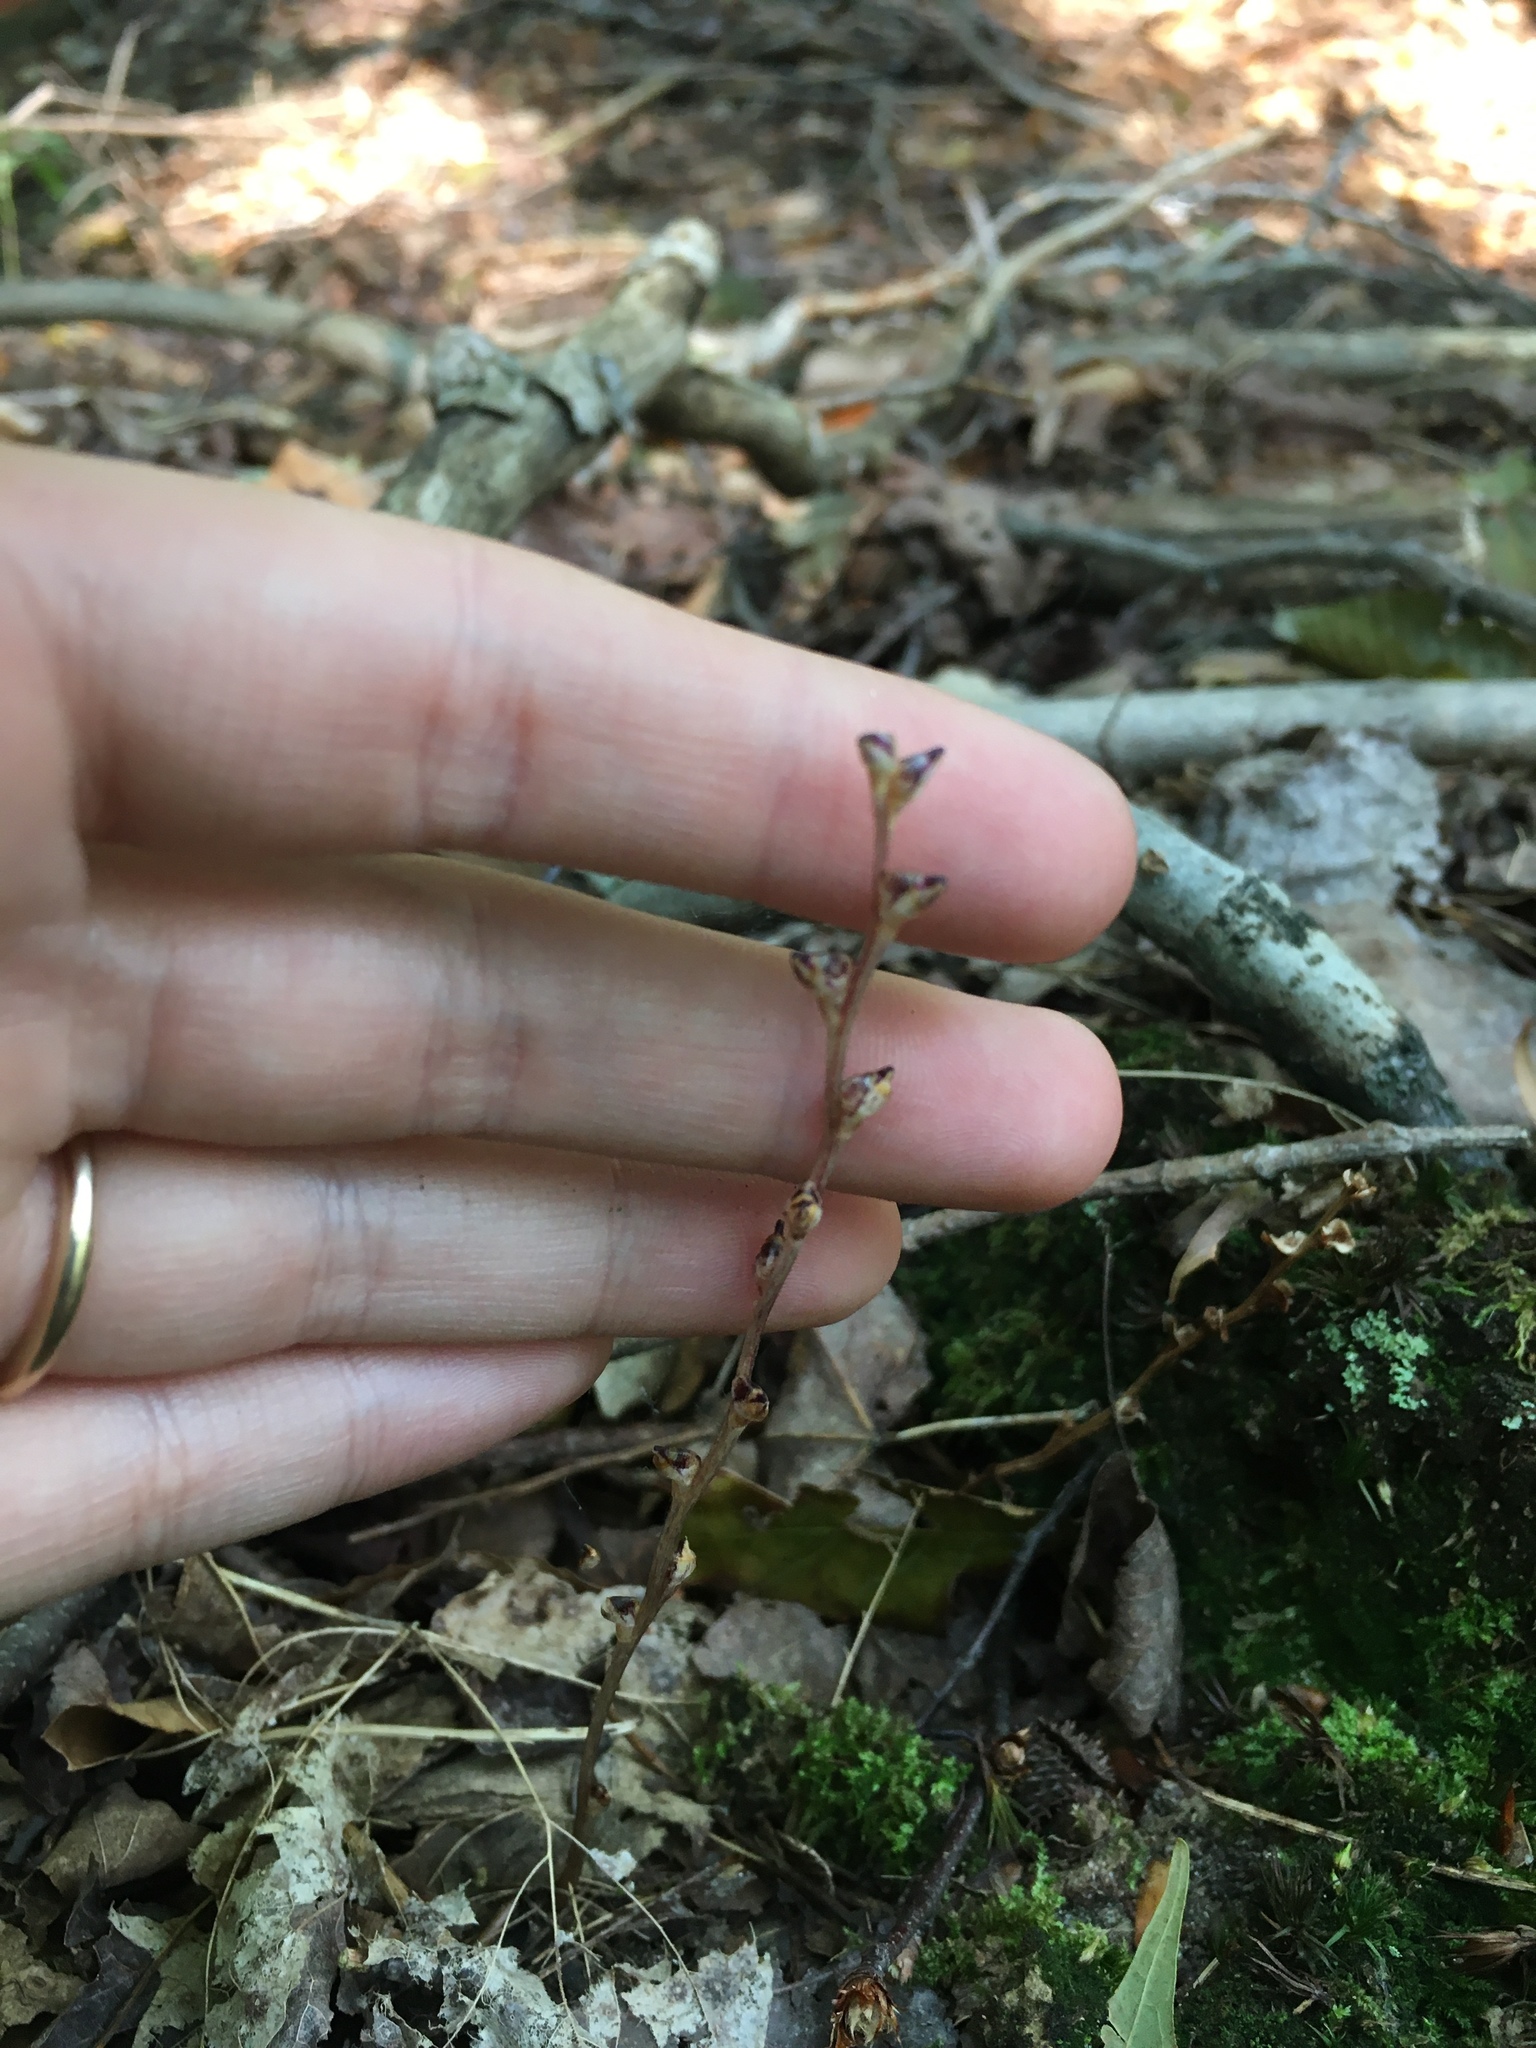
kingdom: Plantae
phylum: Tracheophyta
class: Magnoliopsida
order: Lamiales
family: Orobanchaceae
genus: Epifagus
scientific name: Epifagus virginiana
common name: Beechdrops
